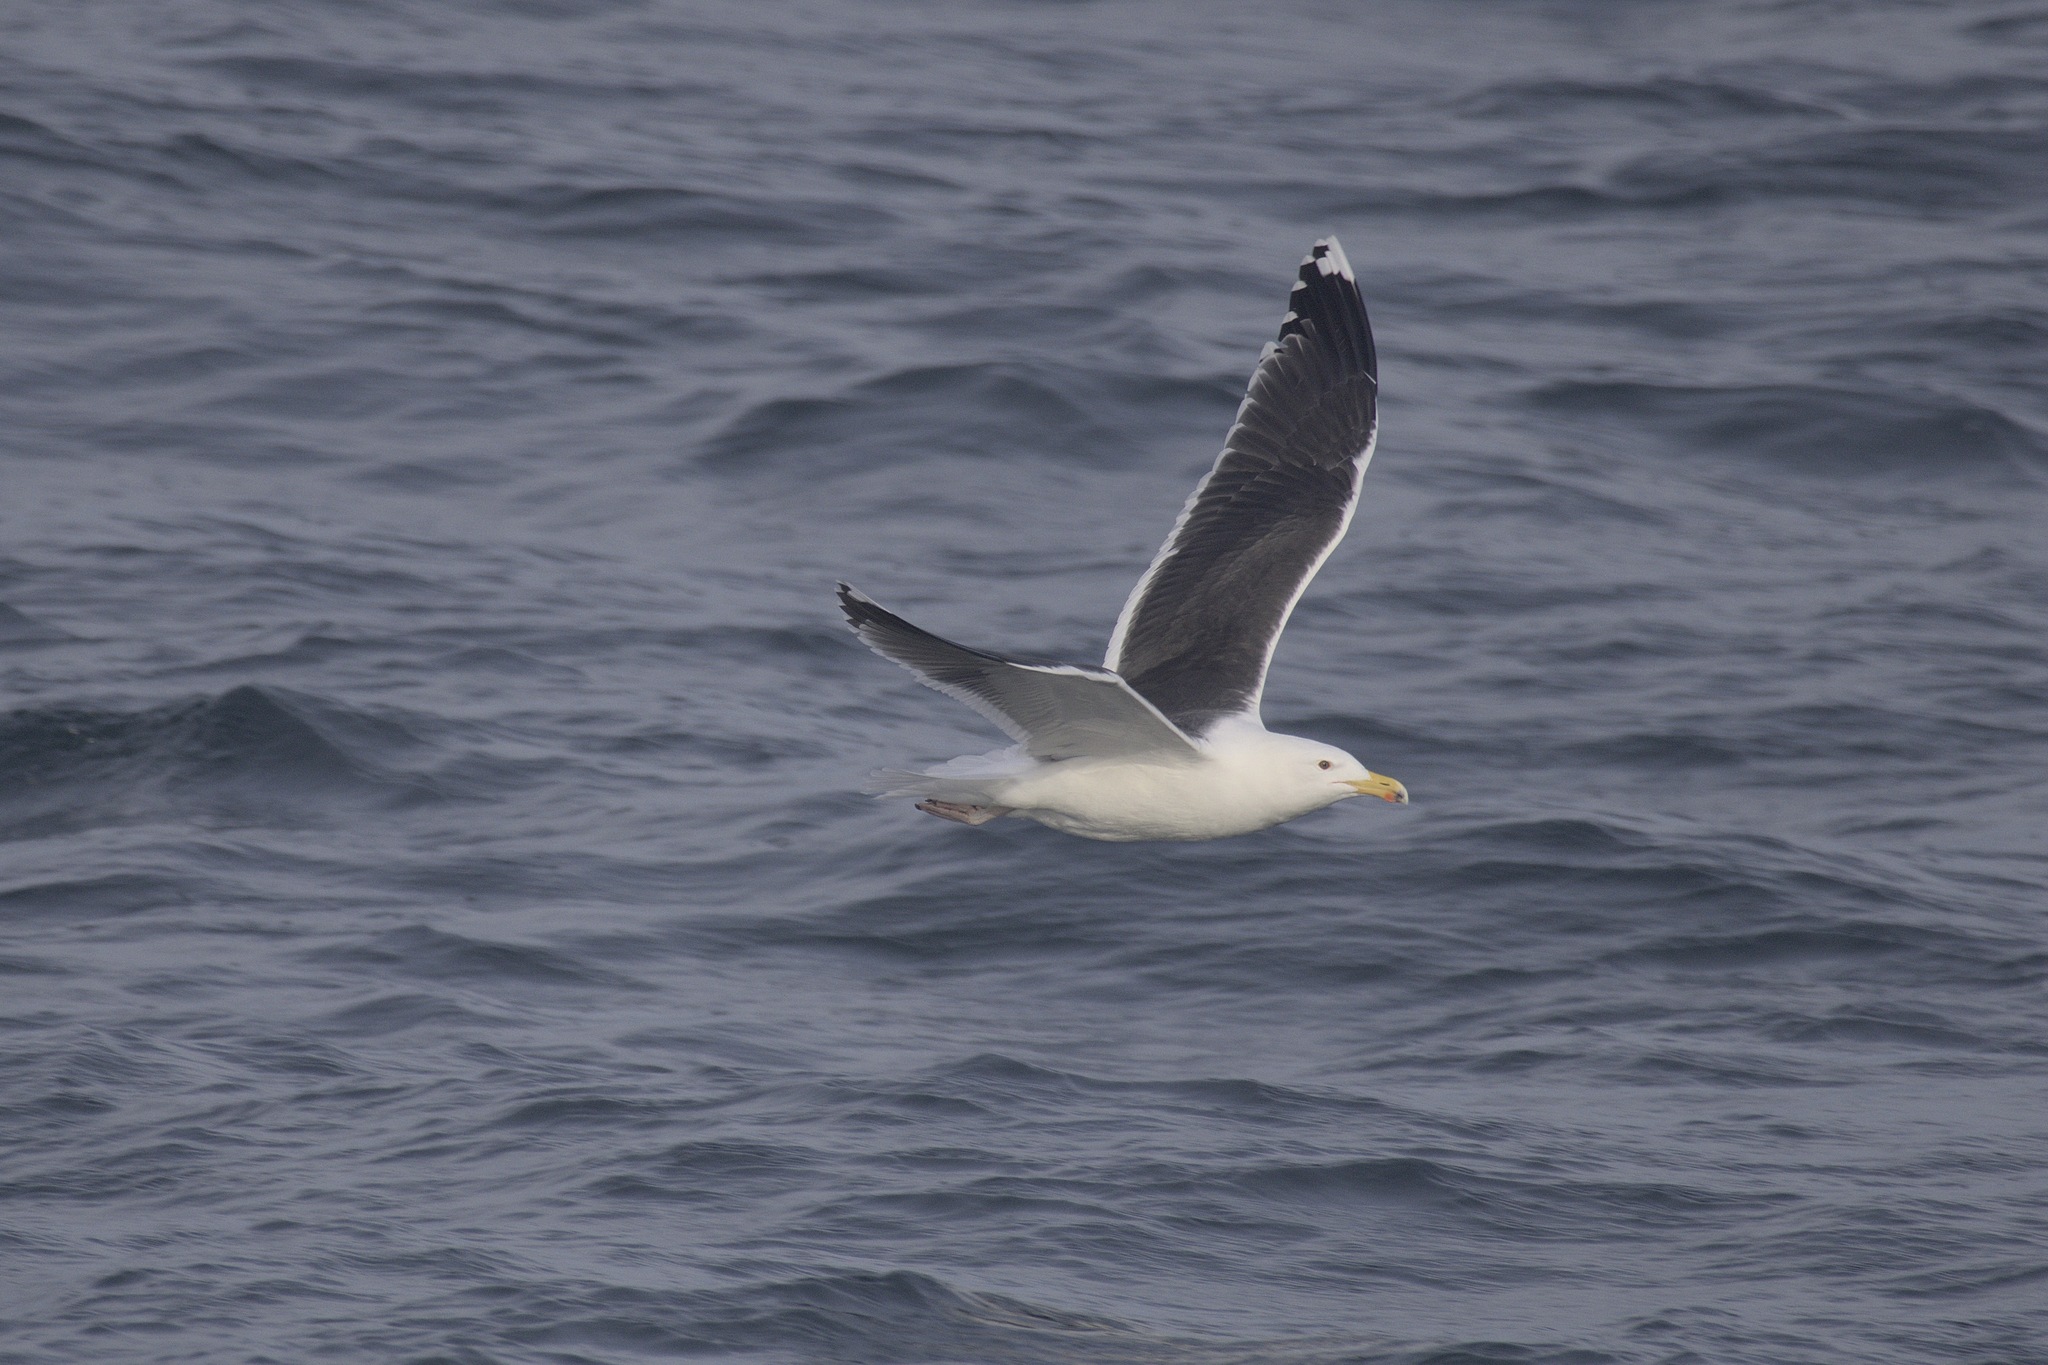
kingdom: Animalia
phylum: Chordata
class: Aves
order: Charadriiformes
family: Laridae
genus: Larus
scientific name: Larus marinus
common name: Great black-backed gull
